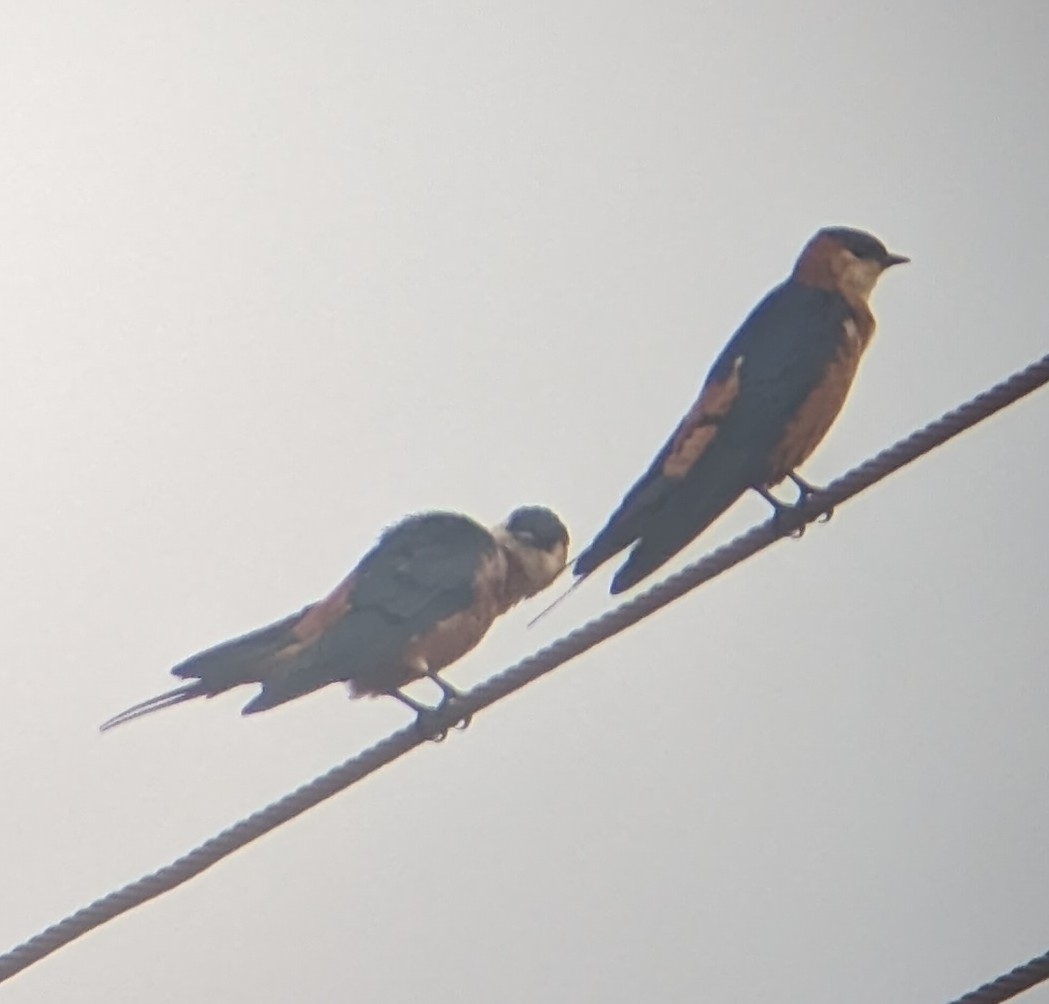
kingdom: Animalia
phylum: Chordata
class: Aves
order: Passeriformes
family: Hirundinidae
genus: Cecropis
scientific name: Cecropis senegalensis
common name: Mosque swallow
